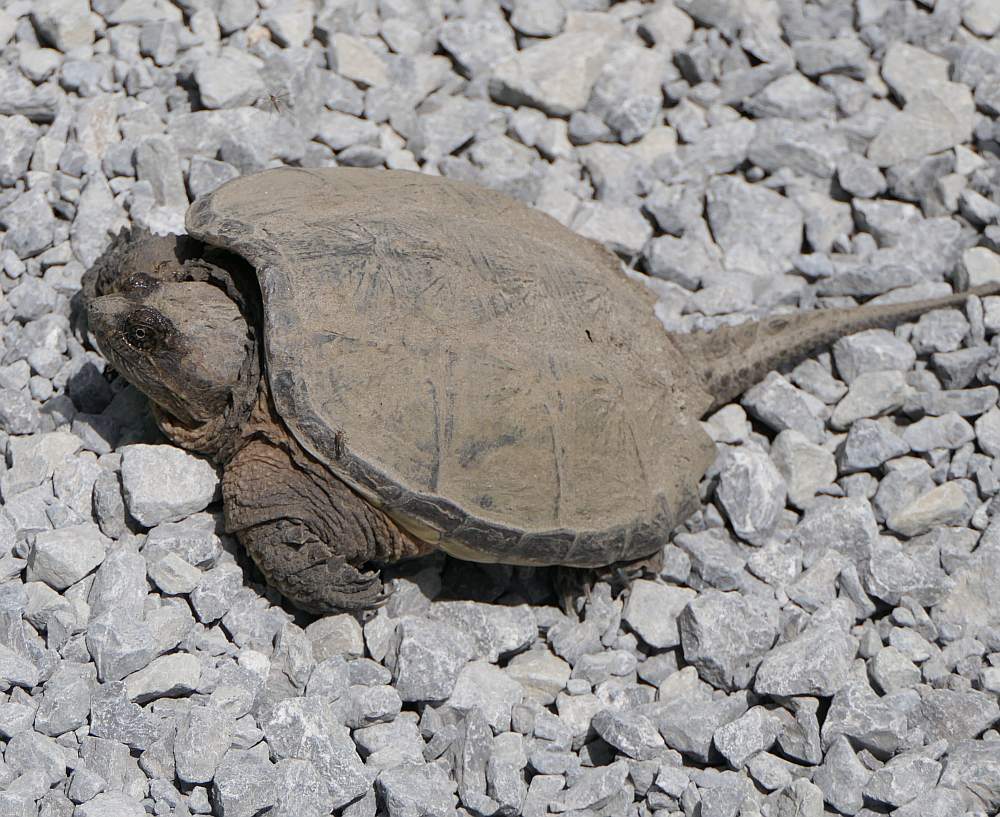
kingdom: Animalia
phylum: Chordata
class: Testudines
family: Chelydridae
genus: Chelydra
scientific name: Chelydra serpentina
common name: Common snapping turtle
